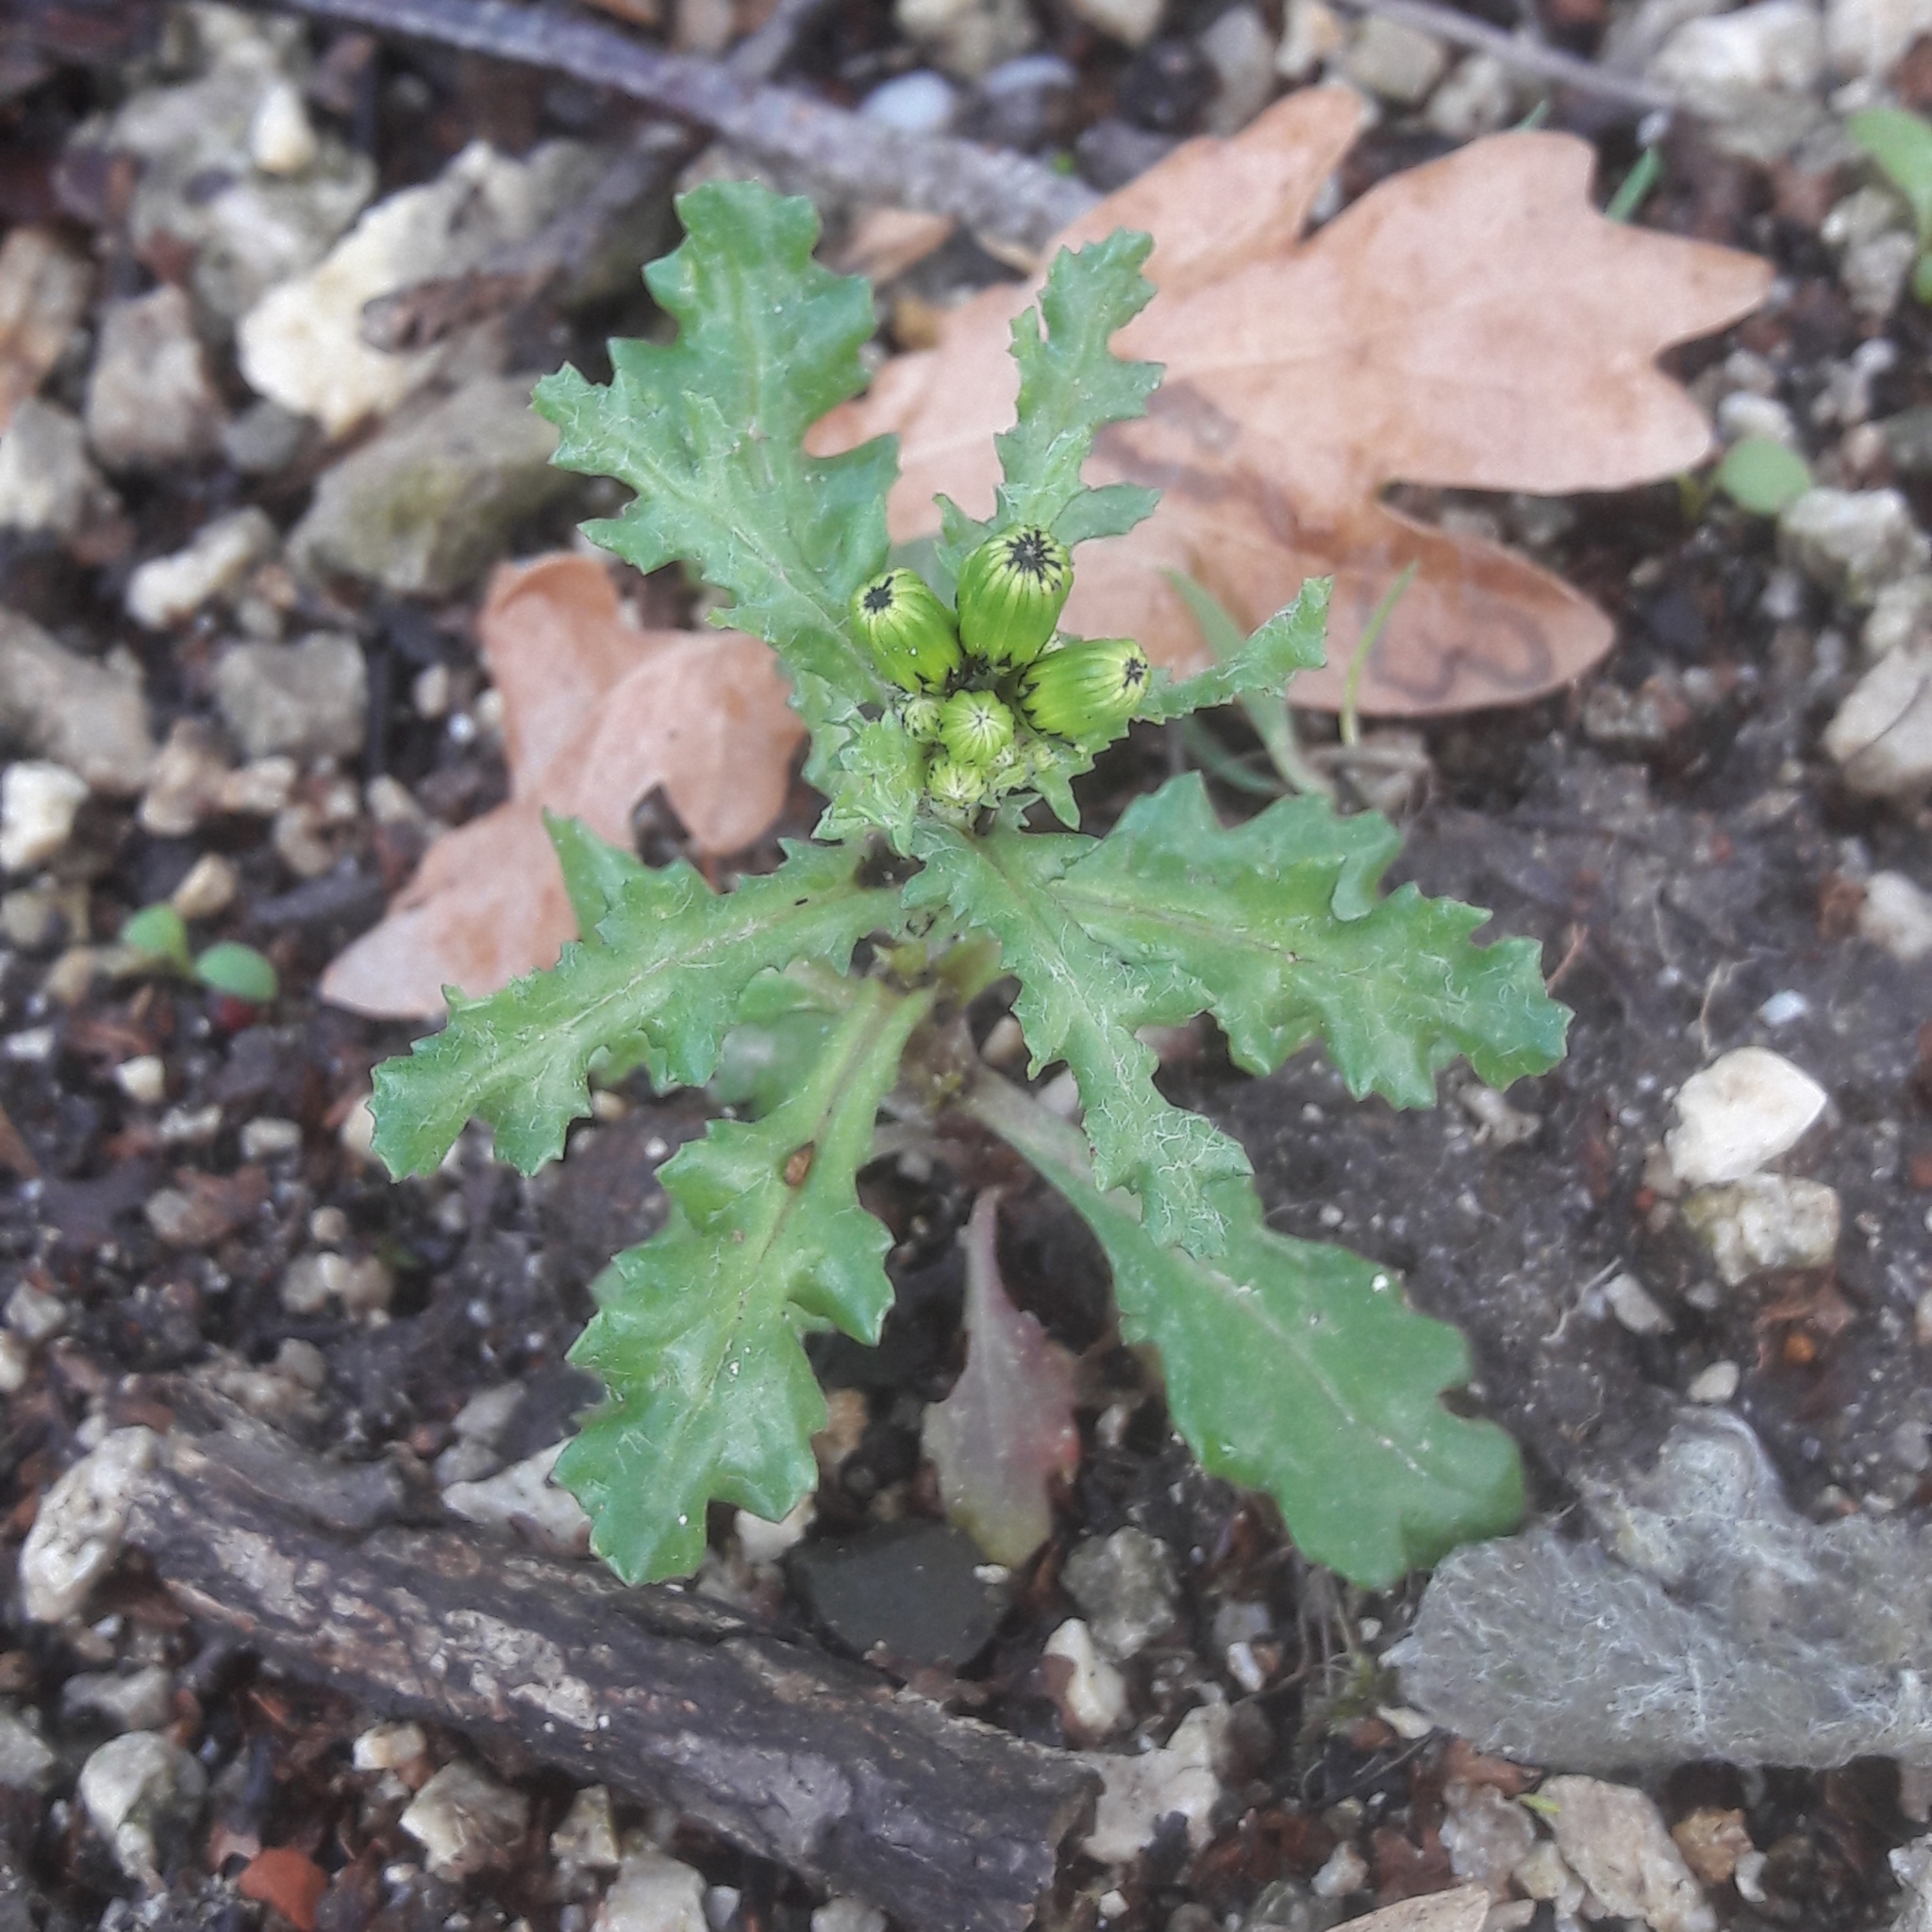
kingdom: Plantae
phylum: Tracheophyta
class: Magnoliopsida
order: Asterales
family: Asteraceae
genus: Senecio
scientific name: Senecio vulgaris
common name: Old-man-in-the-spring
